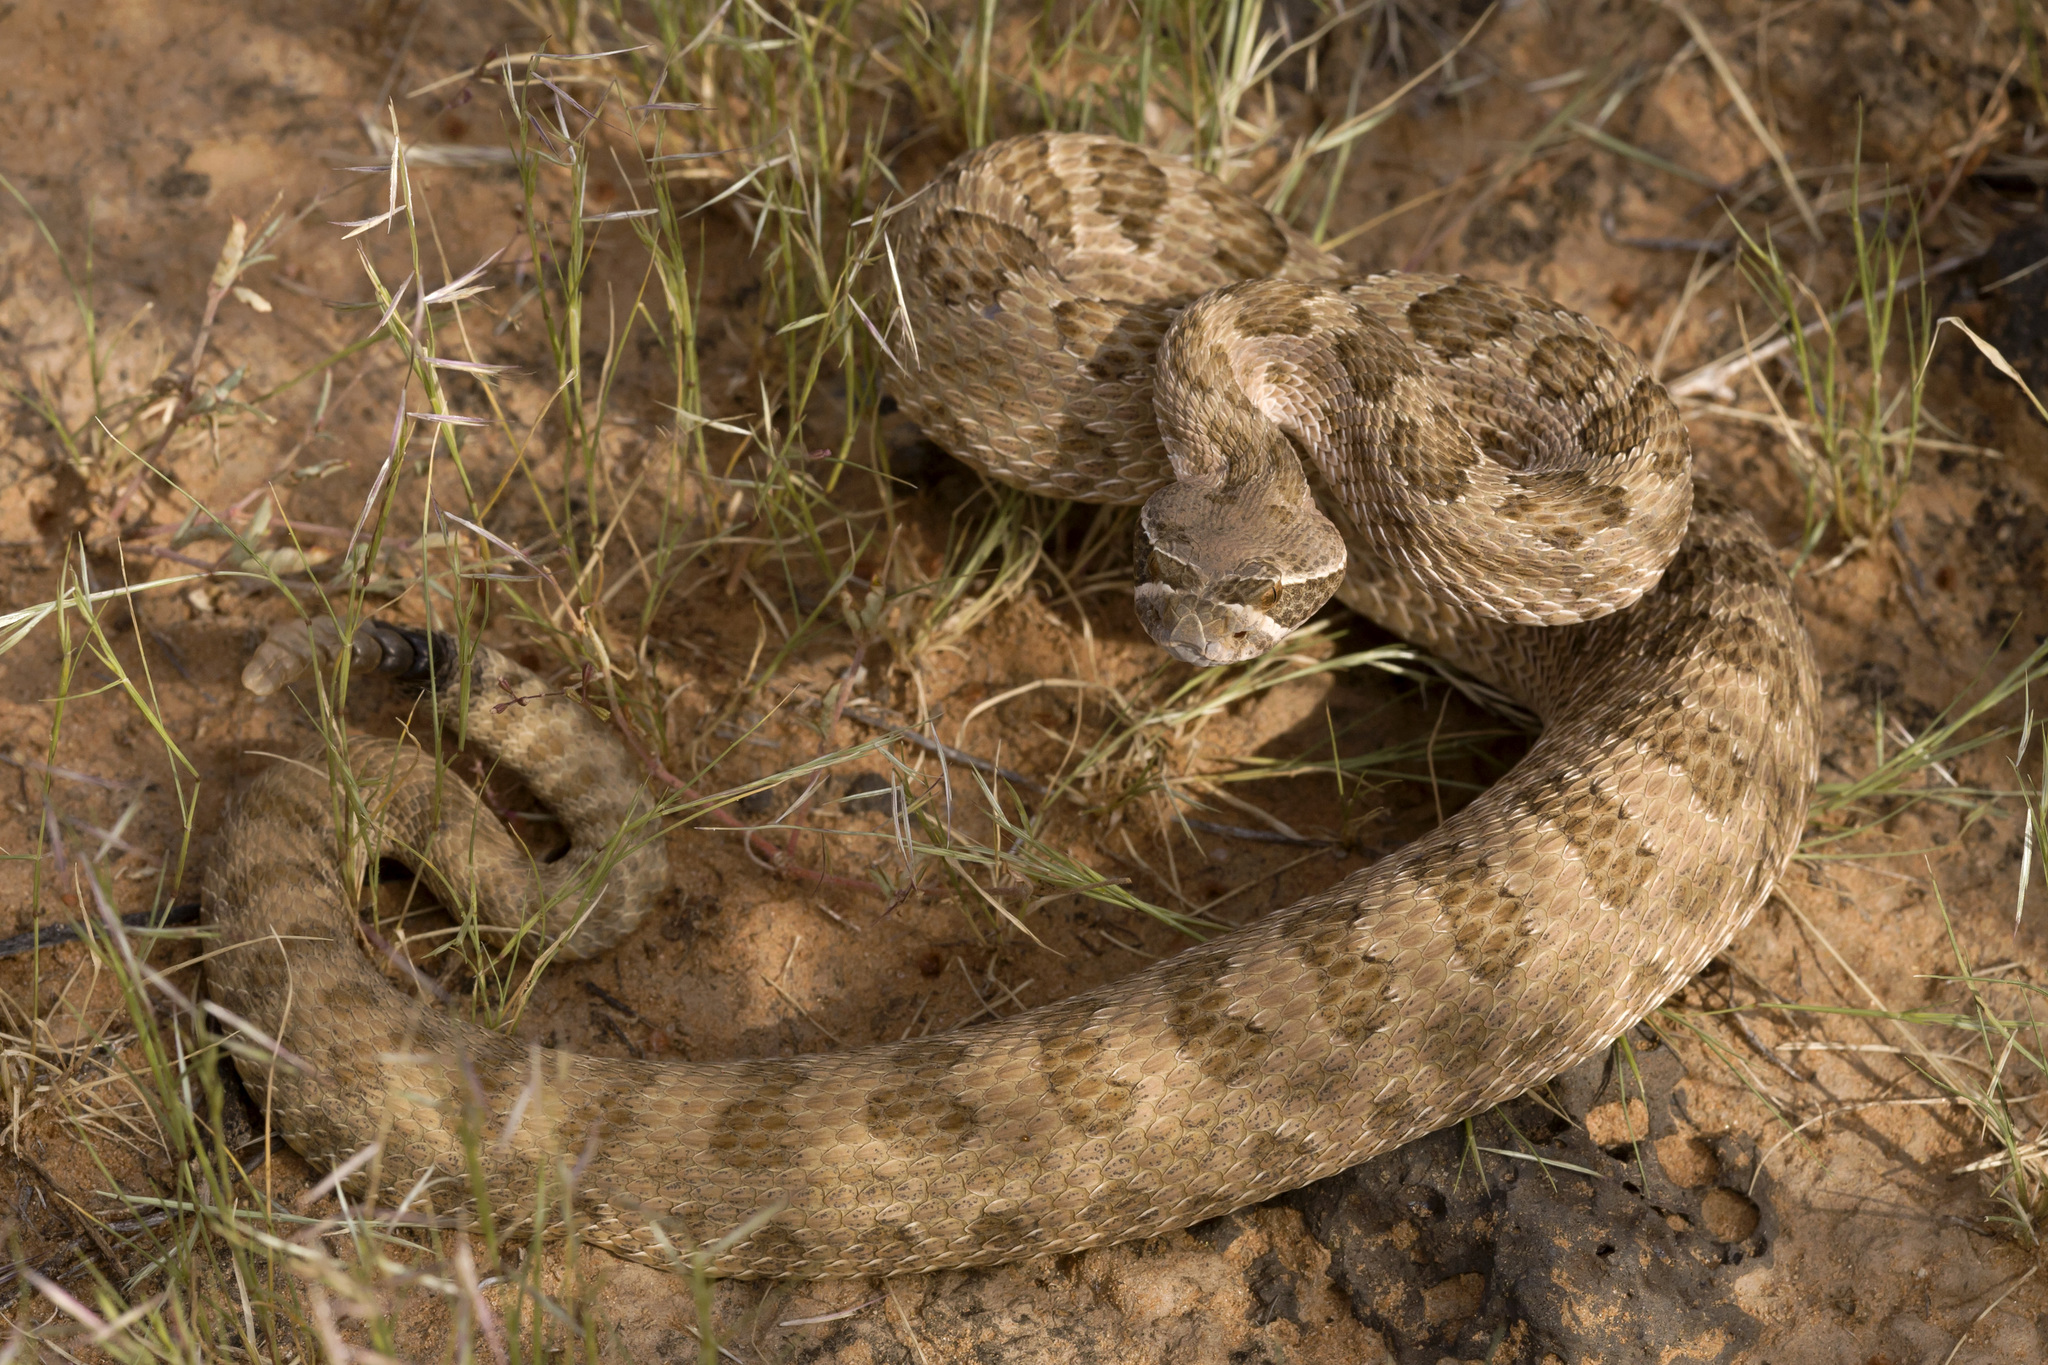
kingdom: Animalia
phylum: Chordata
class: Squamata
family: Viperidae
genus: Crotalus
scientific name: Crotalus viridis
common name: Prairie rattlesnake
